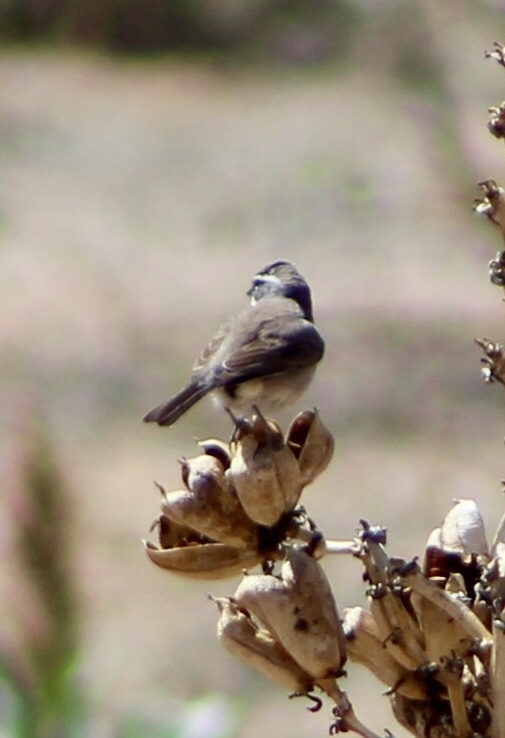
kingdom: Animalia
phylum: Chordata
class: Aves
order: Passeriformes
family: Passerellidae
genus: Amphispiza
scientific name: Amphispiza bilineata
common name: Black-throated sparrow
